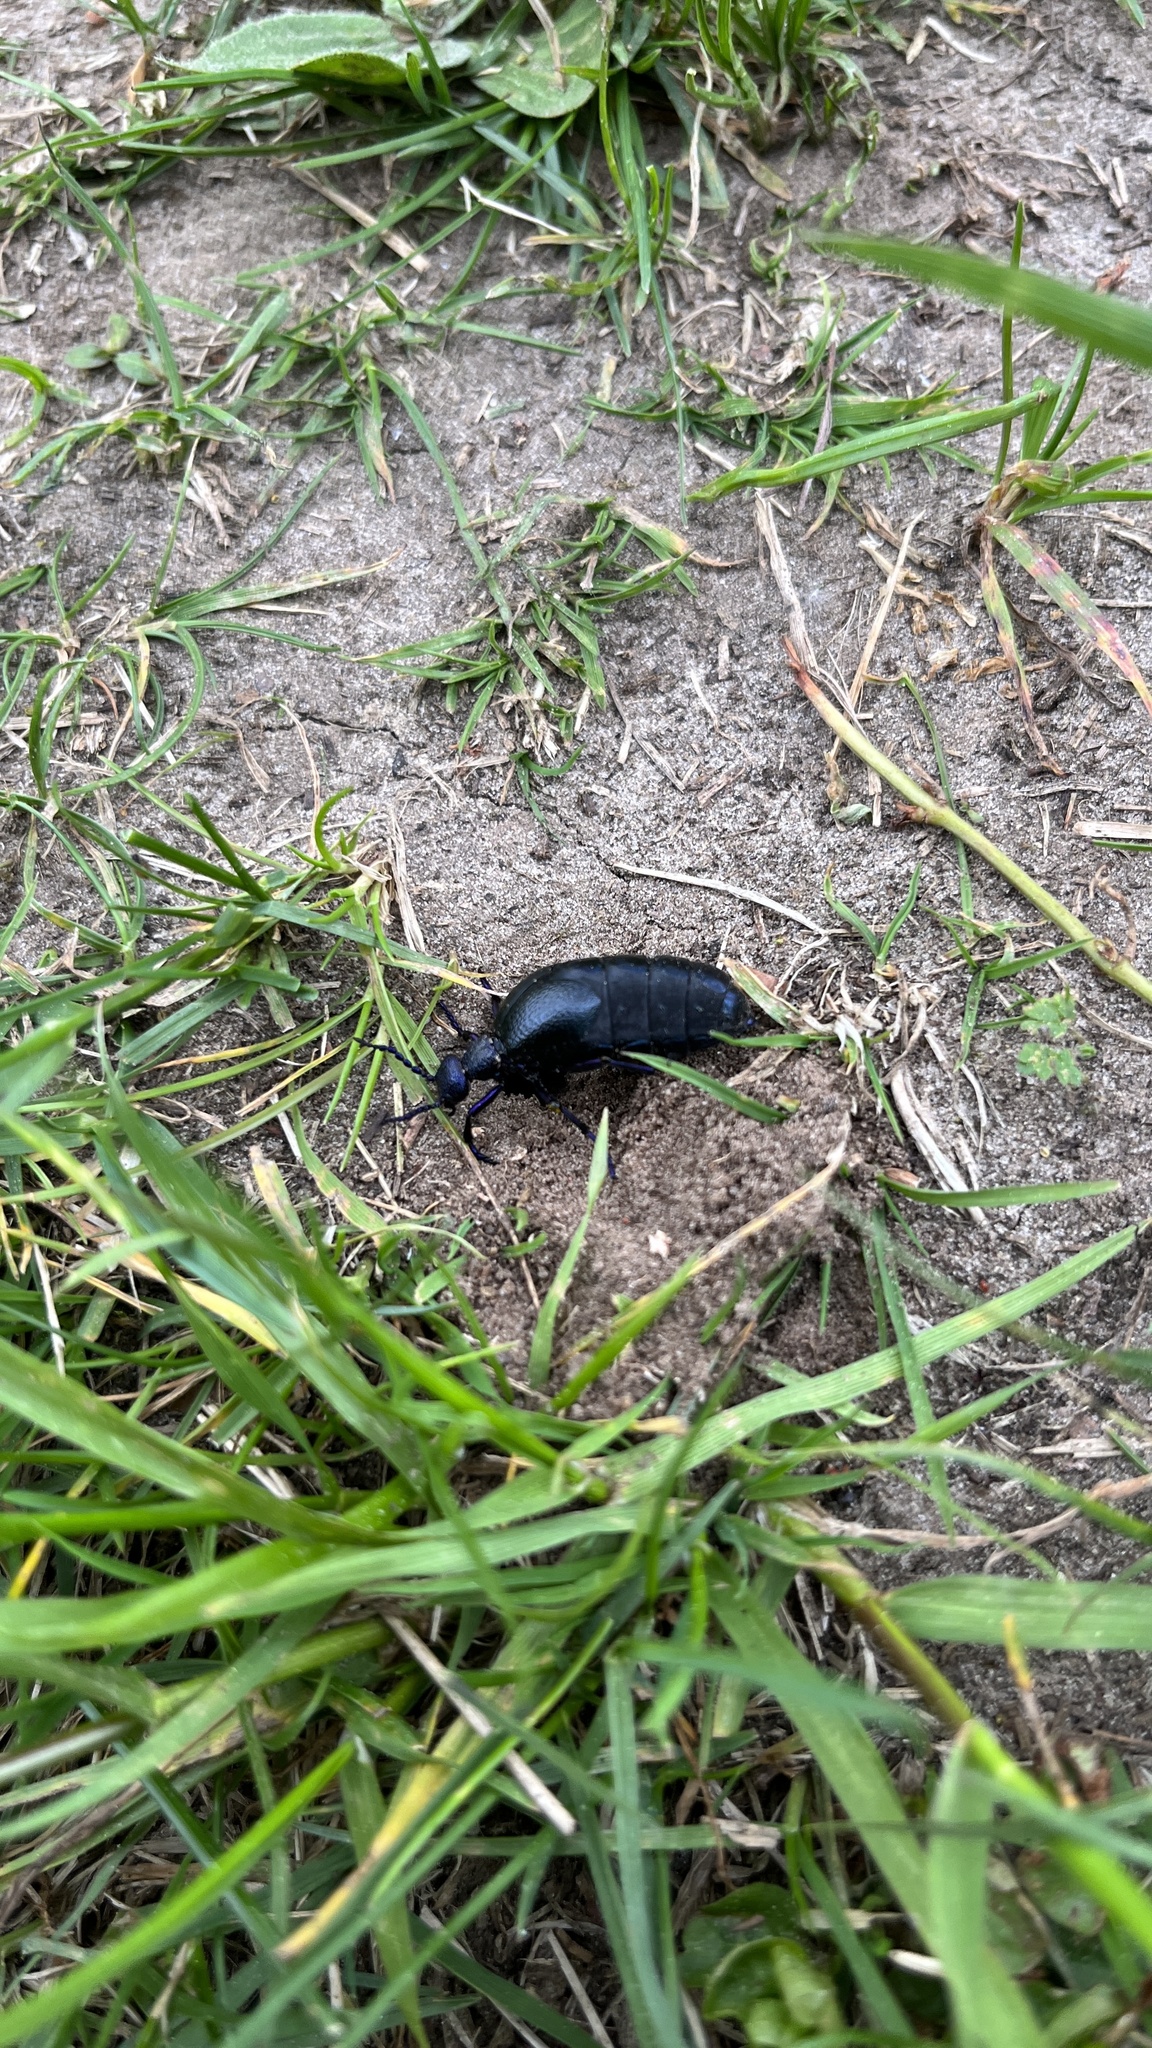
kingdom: Animalia
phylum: Arthropoda
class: Insecta
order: Coleoptera
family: Meloidae
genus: Meloe
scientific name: Meloe proscarabaeus
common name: Black oil-beetle
